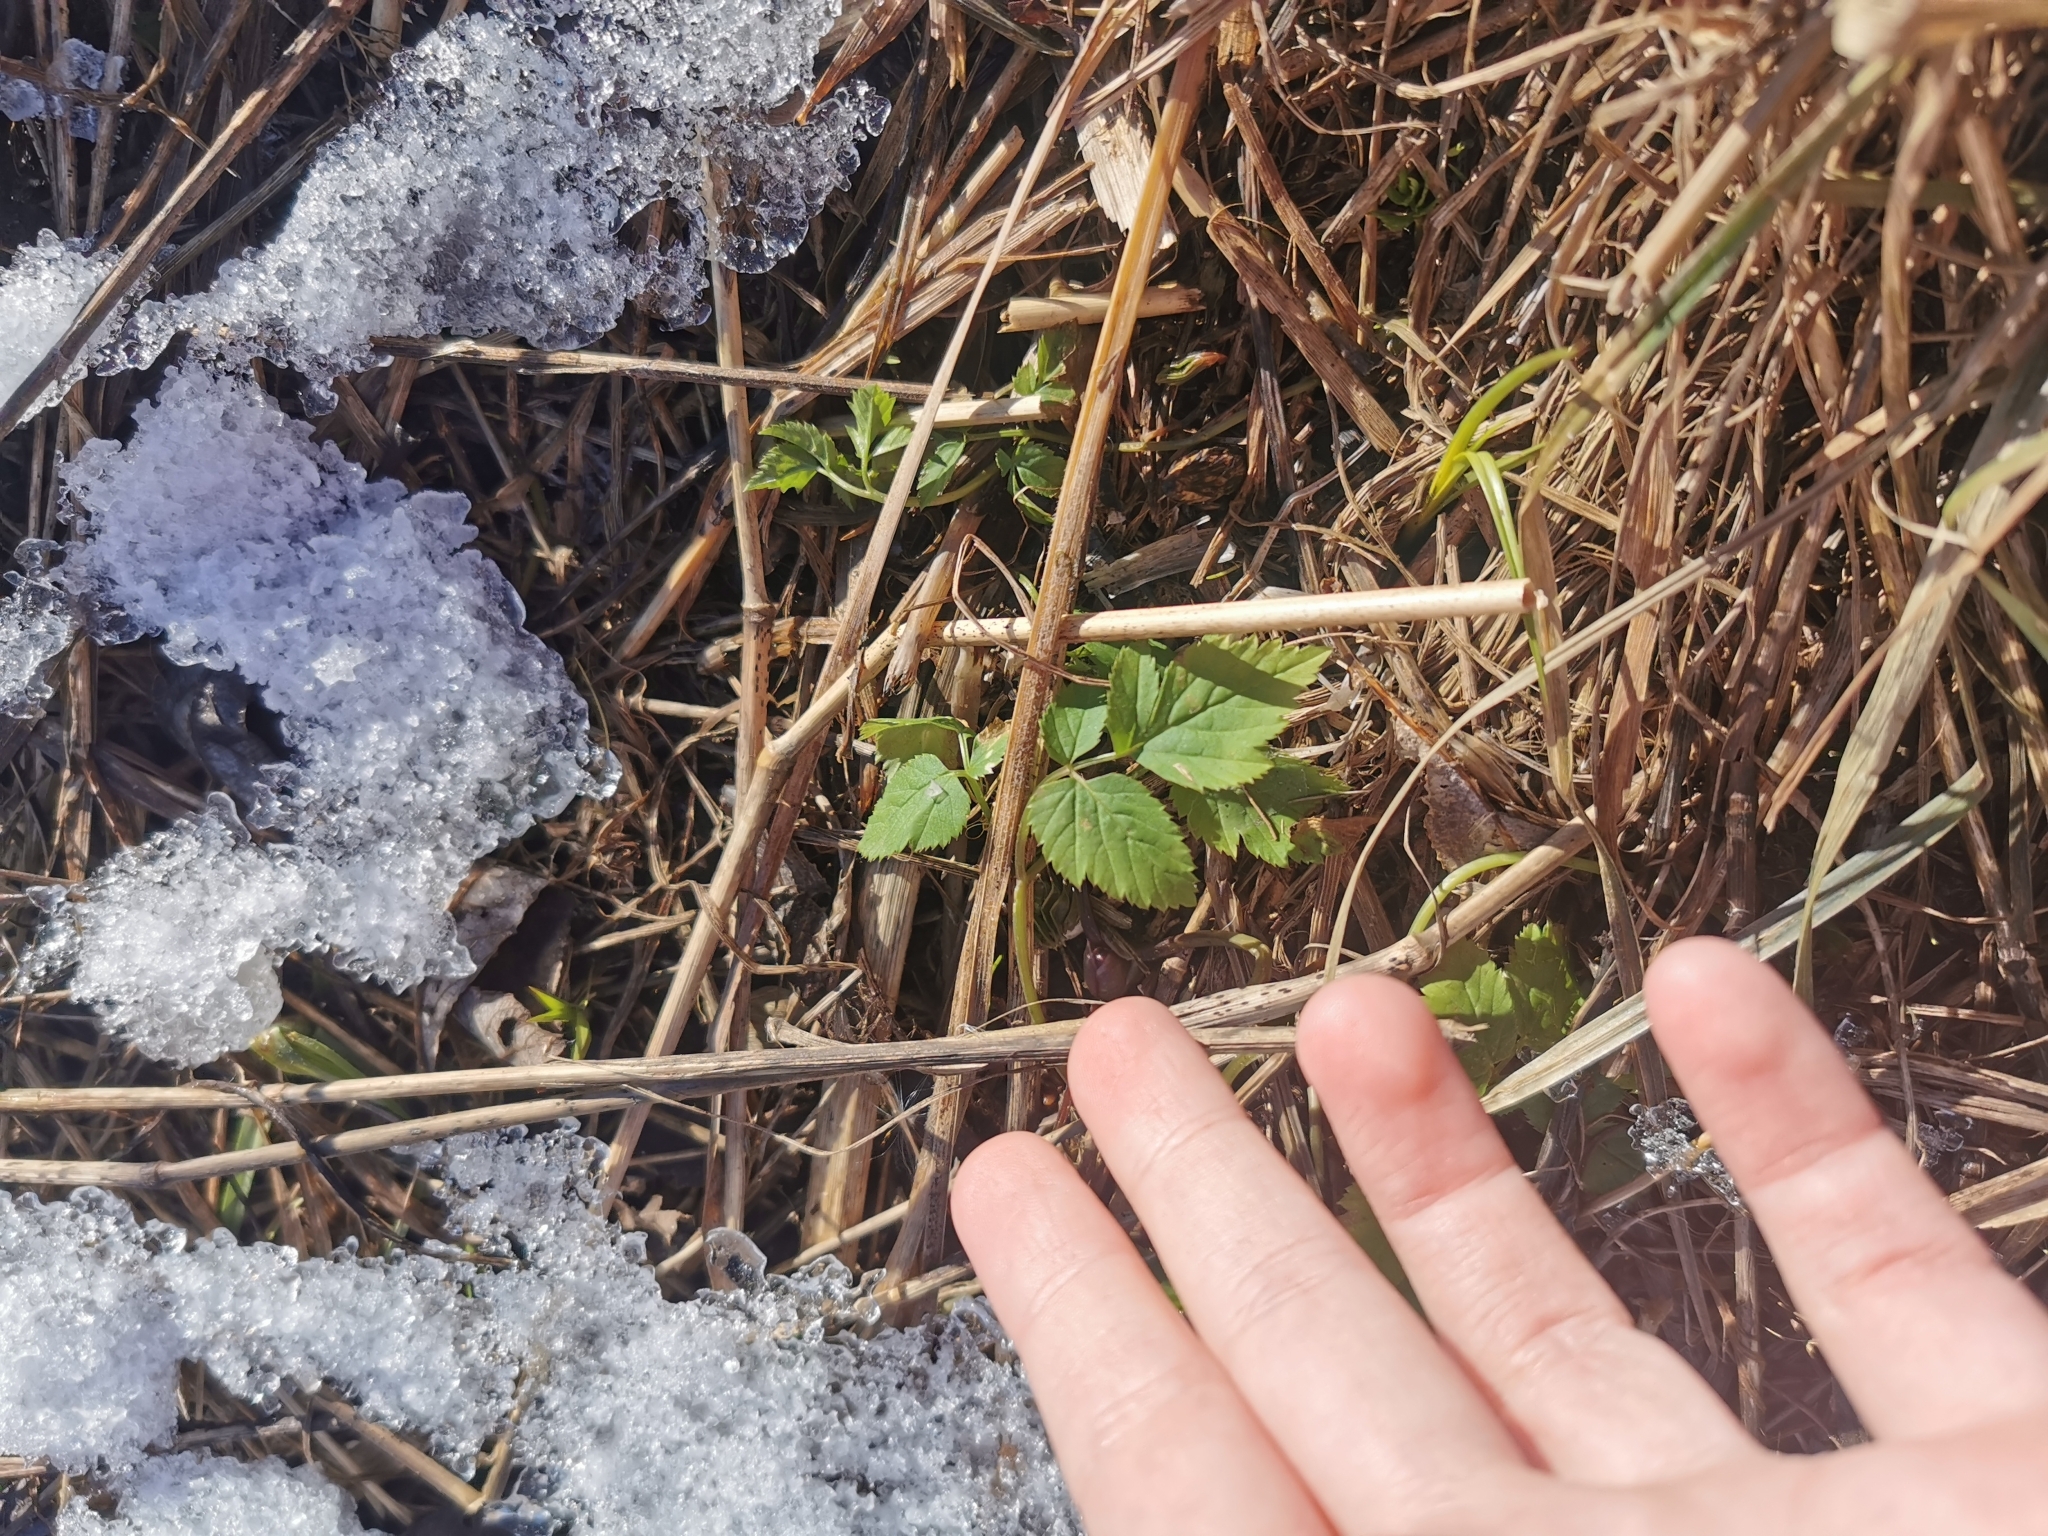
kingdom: Plantae
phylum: Tracheophyta
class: Magnoliopsida
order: Apiales
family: Apiaceae
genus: Aegopodium
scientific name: Aegopodium podagraria
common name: Ground-elder
